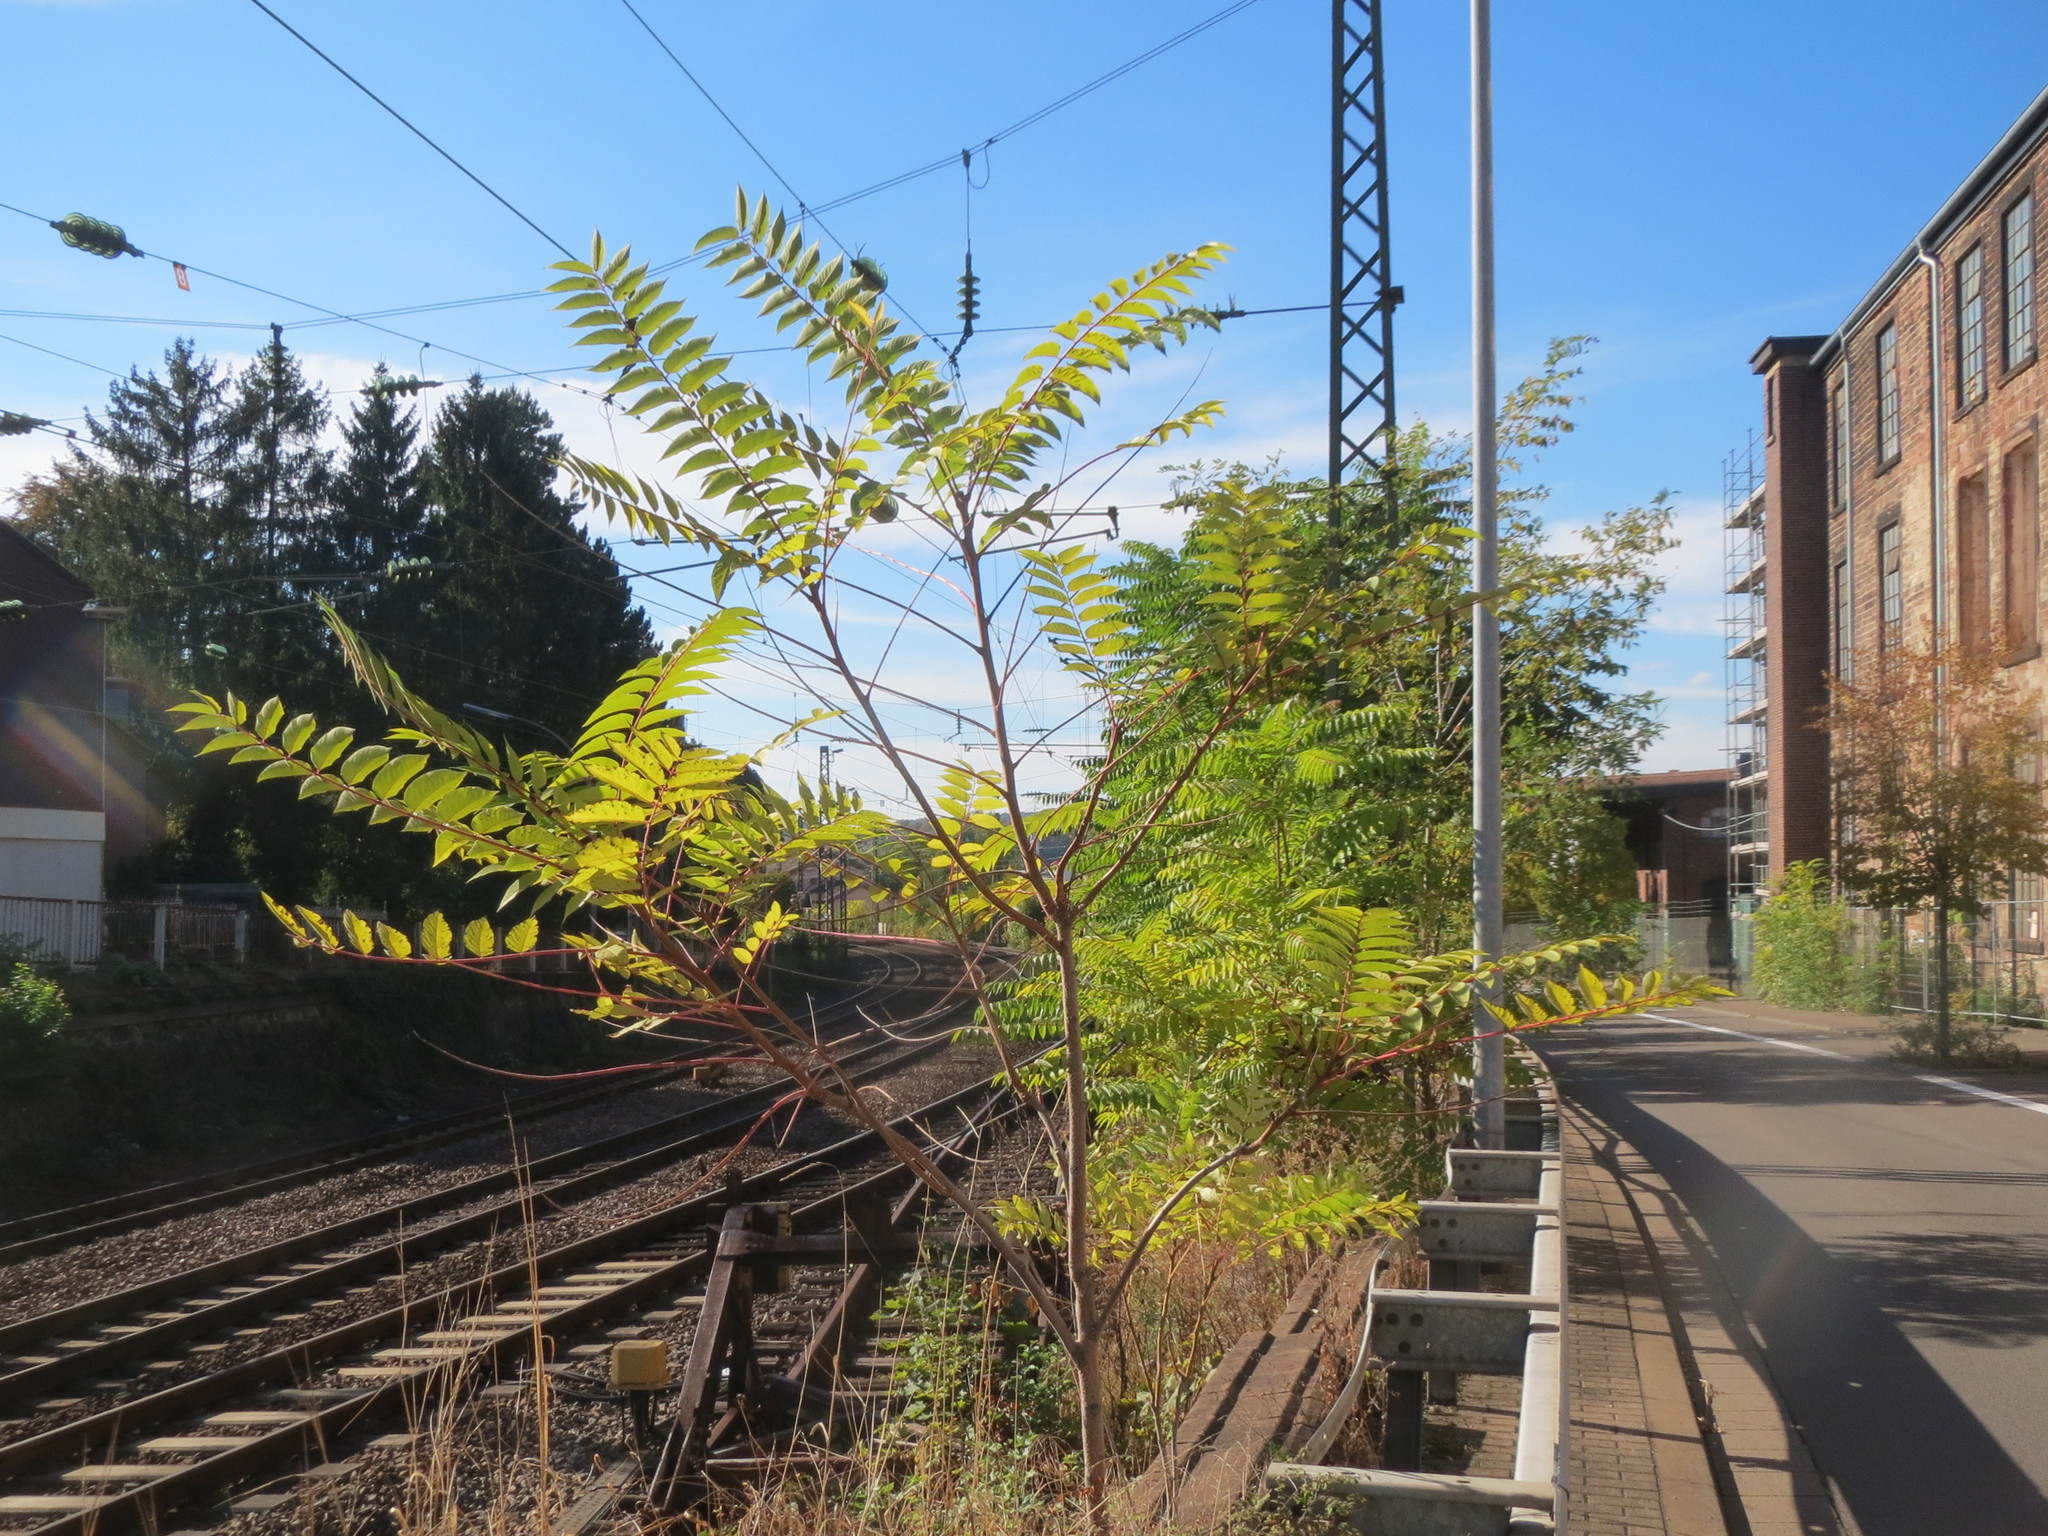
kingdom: Plantae
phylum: Tracheophyta
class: Magnoliopsida
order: Sapindales
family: Simaroubaceae
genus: Ailanthus
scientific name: Ailanthus altissima
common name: Tree-of-heaven
